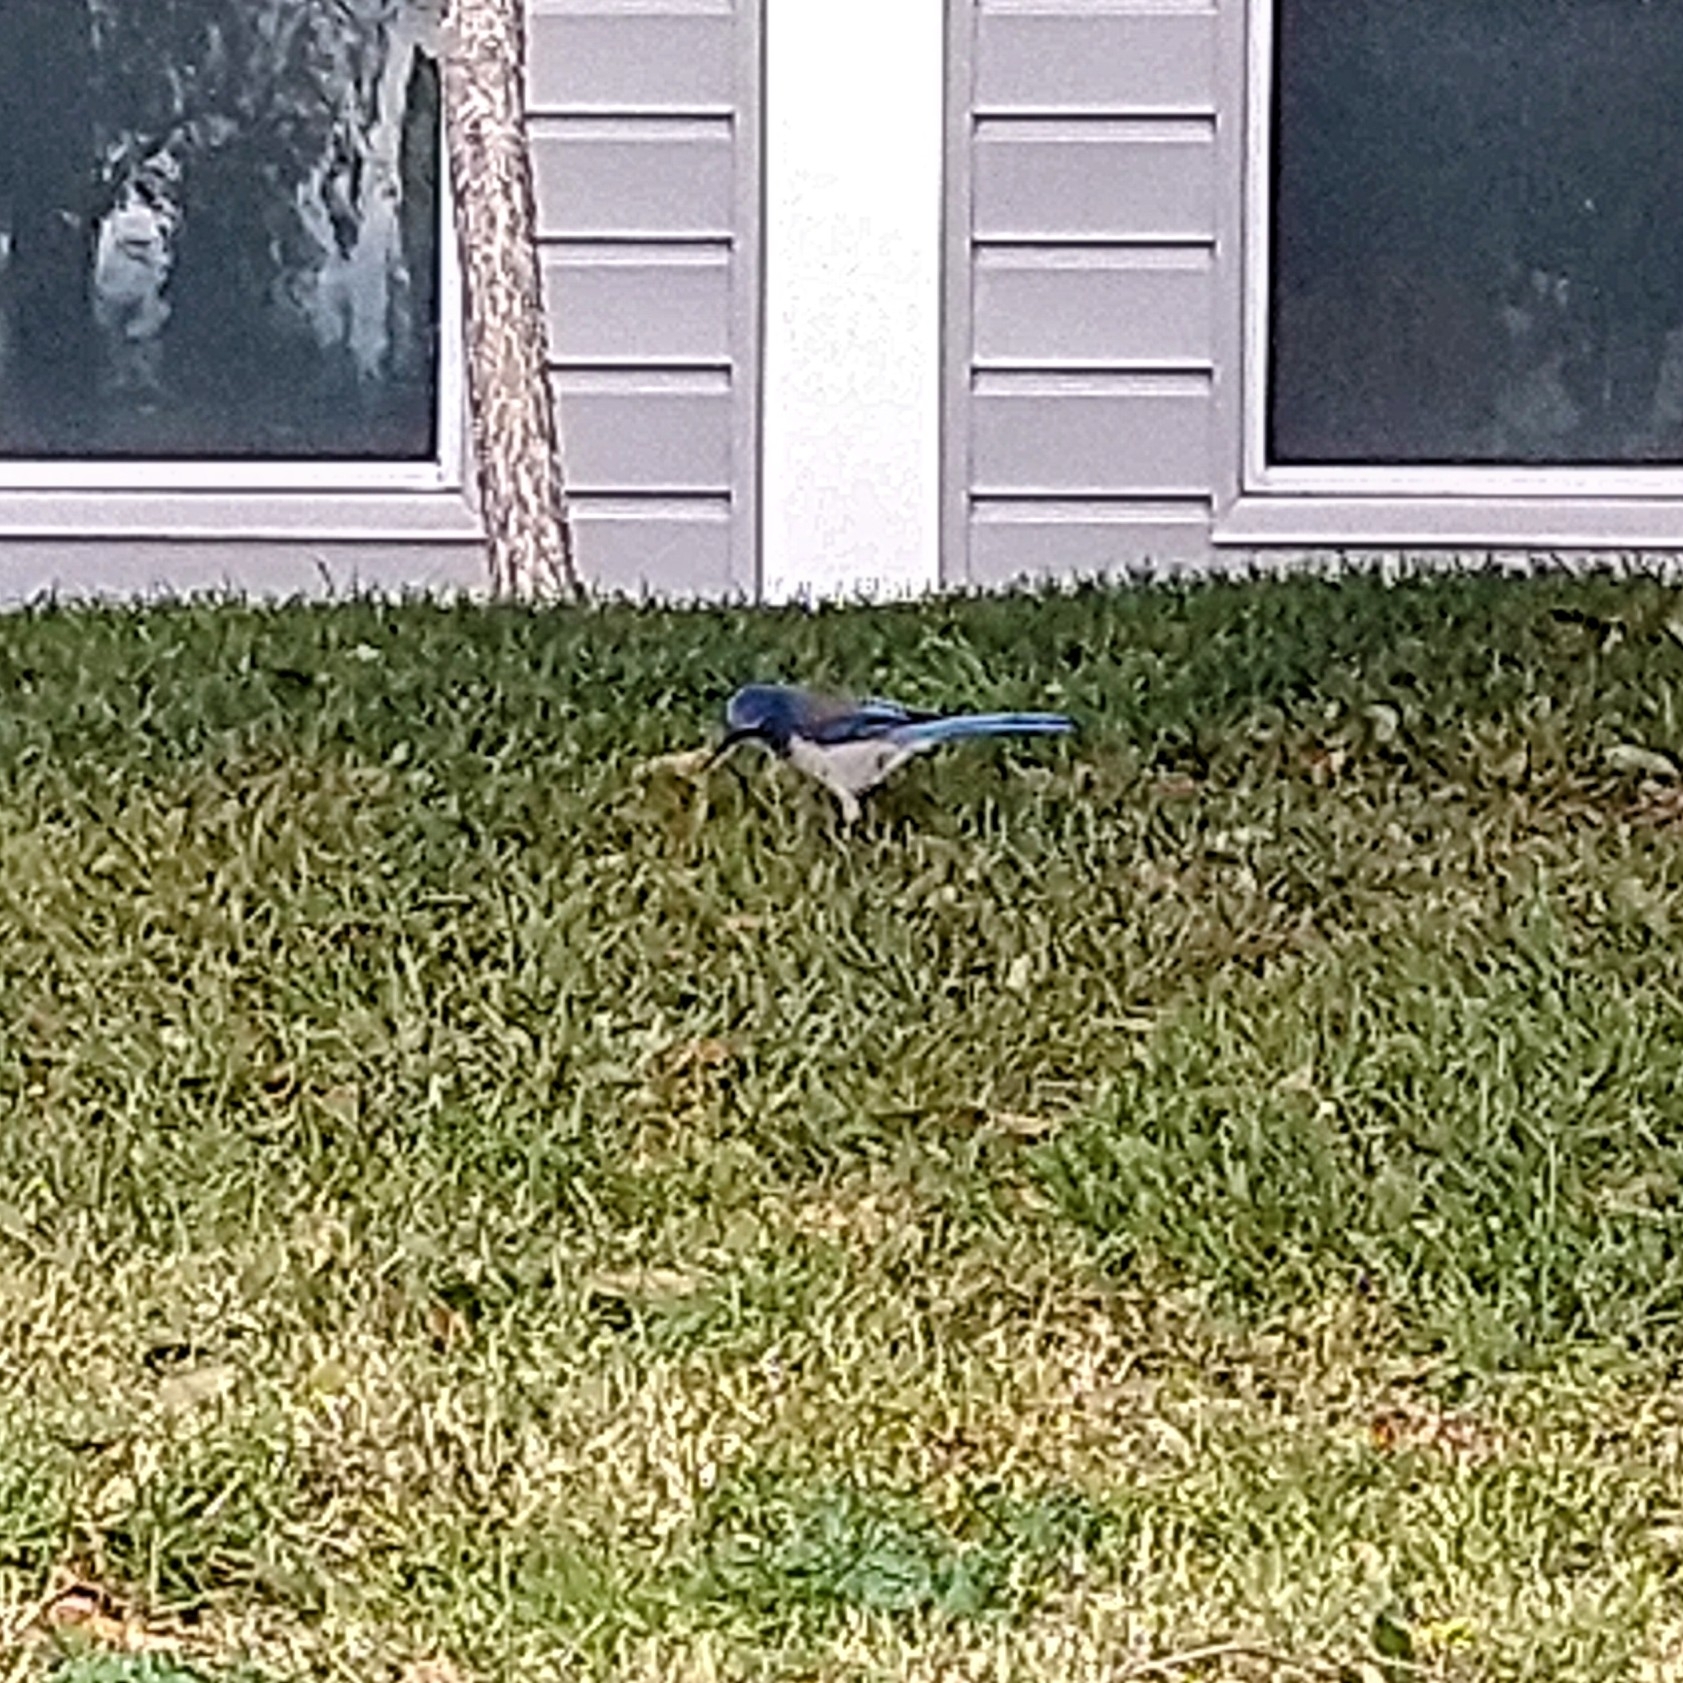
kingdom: Animalia
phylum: Chordata
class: Aves
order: Passeriformes
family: Corvidae
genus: Aphelocoma
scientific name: Aphelocoma californica
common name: California scrub-jay
